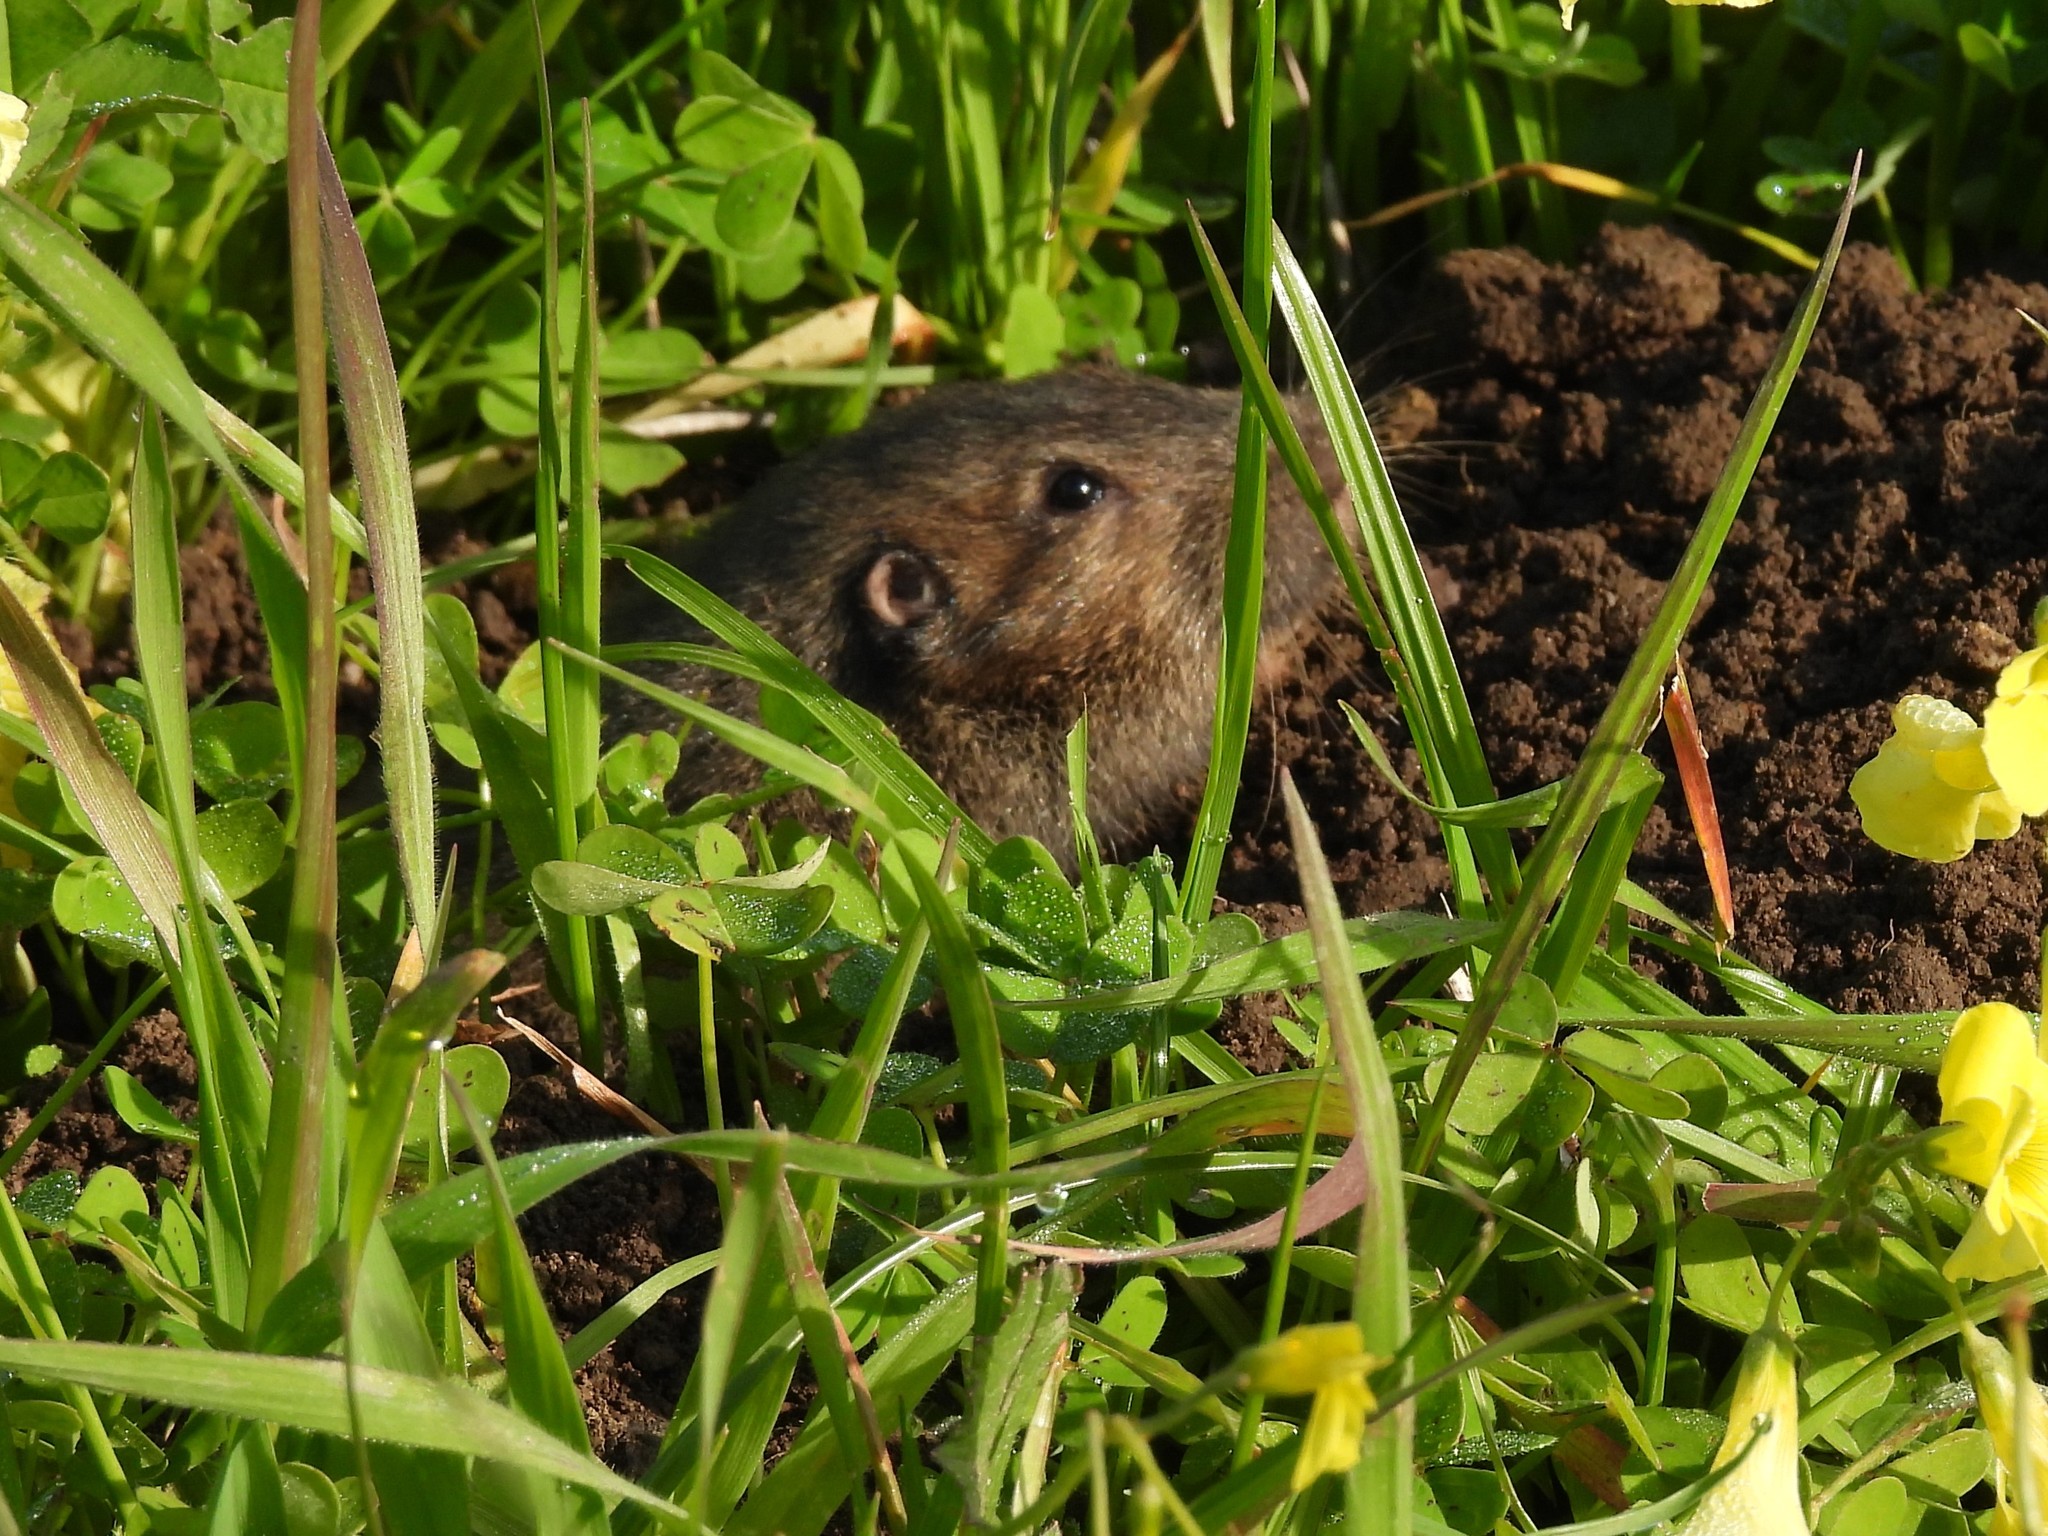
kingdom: Animalia
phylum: Chordata
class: Mammalia
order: Rodentia
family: Geomyidae
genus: Thomomys
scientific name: Thomomys bottae
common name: Botta's pocket gopher
